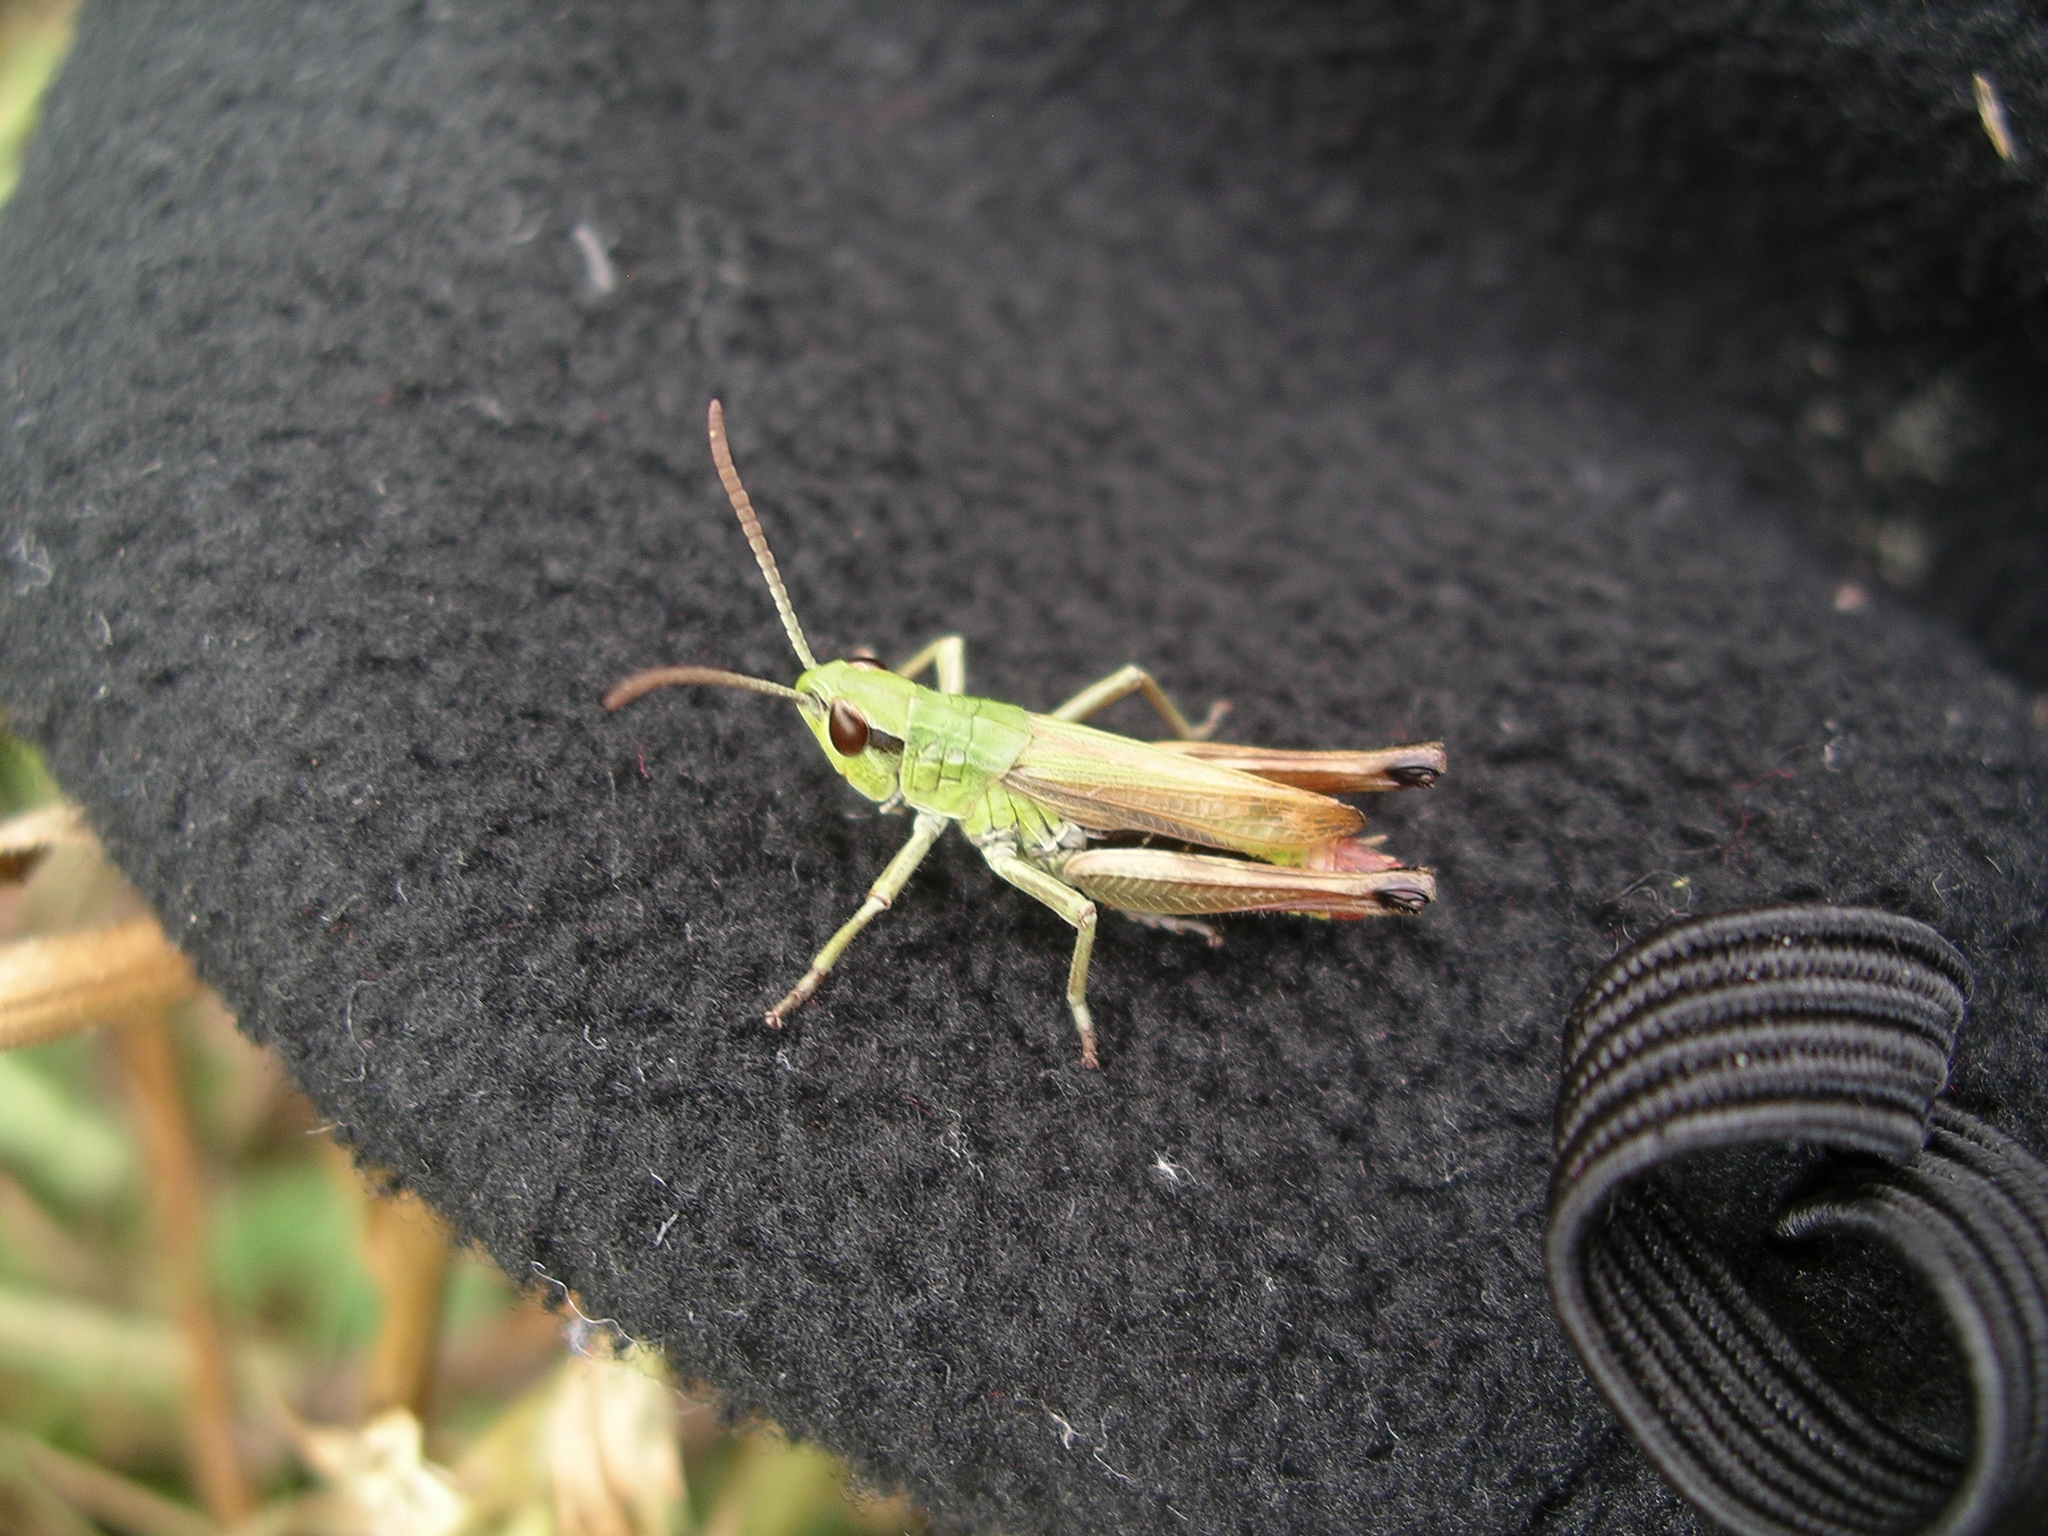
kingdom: Animalia
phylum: Arthropoda
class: Insecta
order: Orthoptera
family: Acrididae
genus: Pseudochorthippus
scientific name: Pseudochorthippus parallelus
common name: Meadow grasshopper
